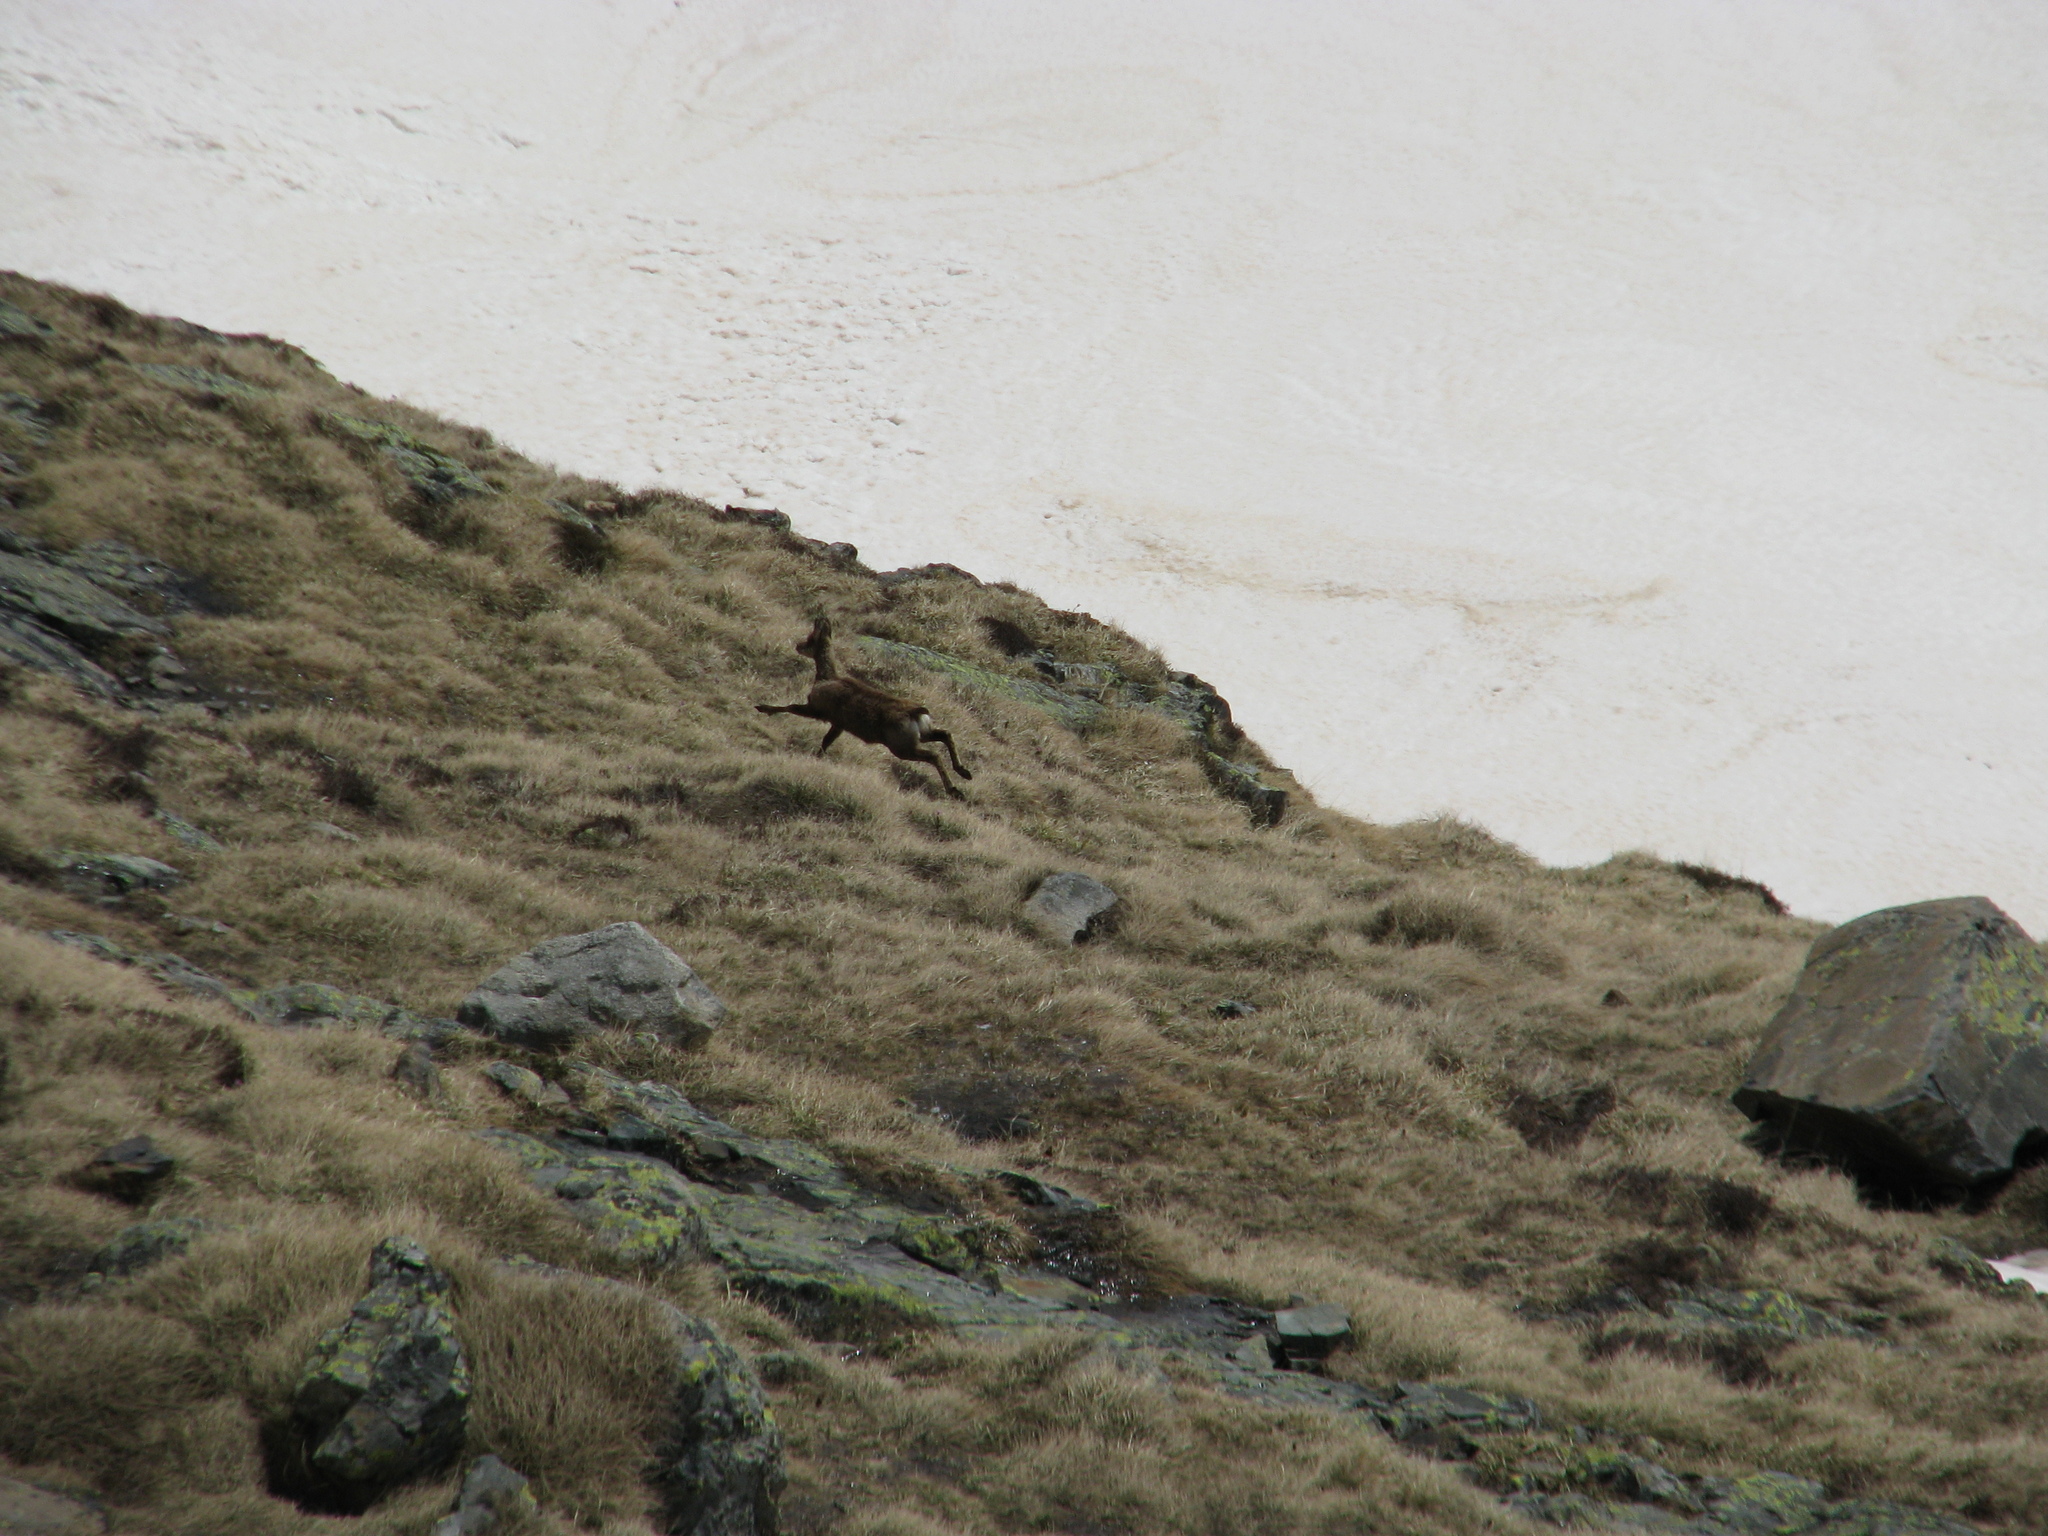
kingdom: Animalia
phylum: Chordata
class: Mammalia
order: Artiodactyla
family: Bovidae
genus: Rupicapra
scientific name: Rupicapra pyrenaica
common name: Pyrenean chamois
